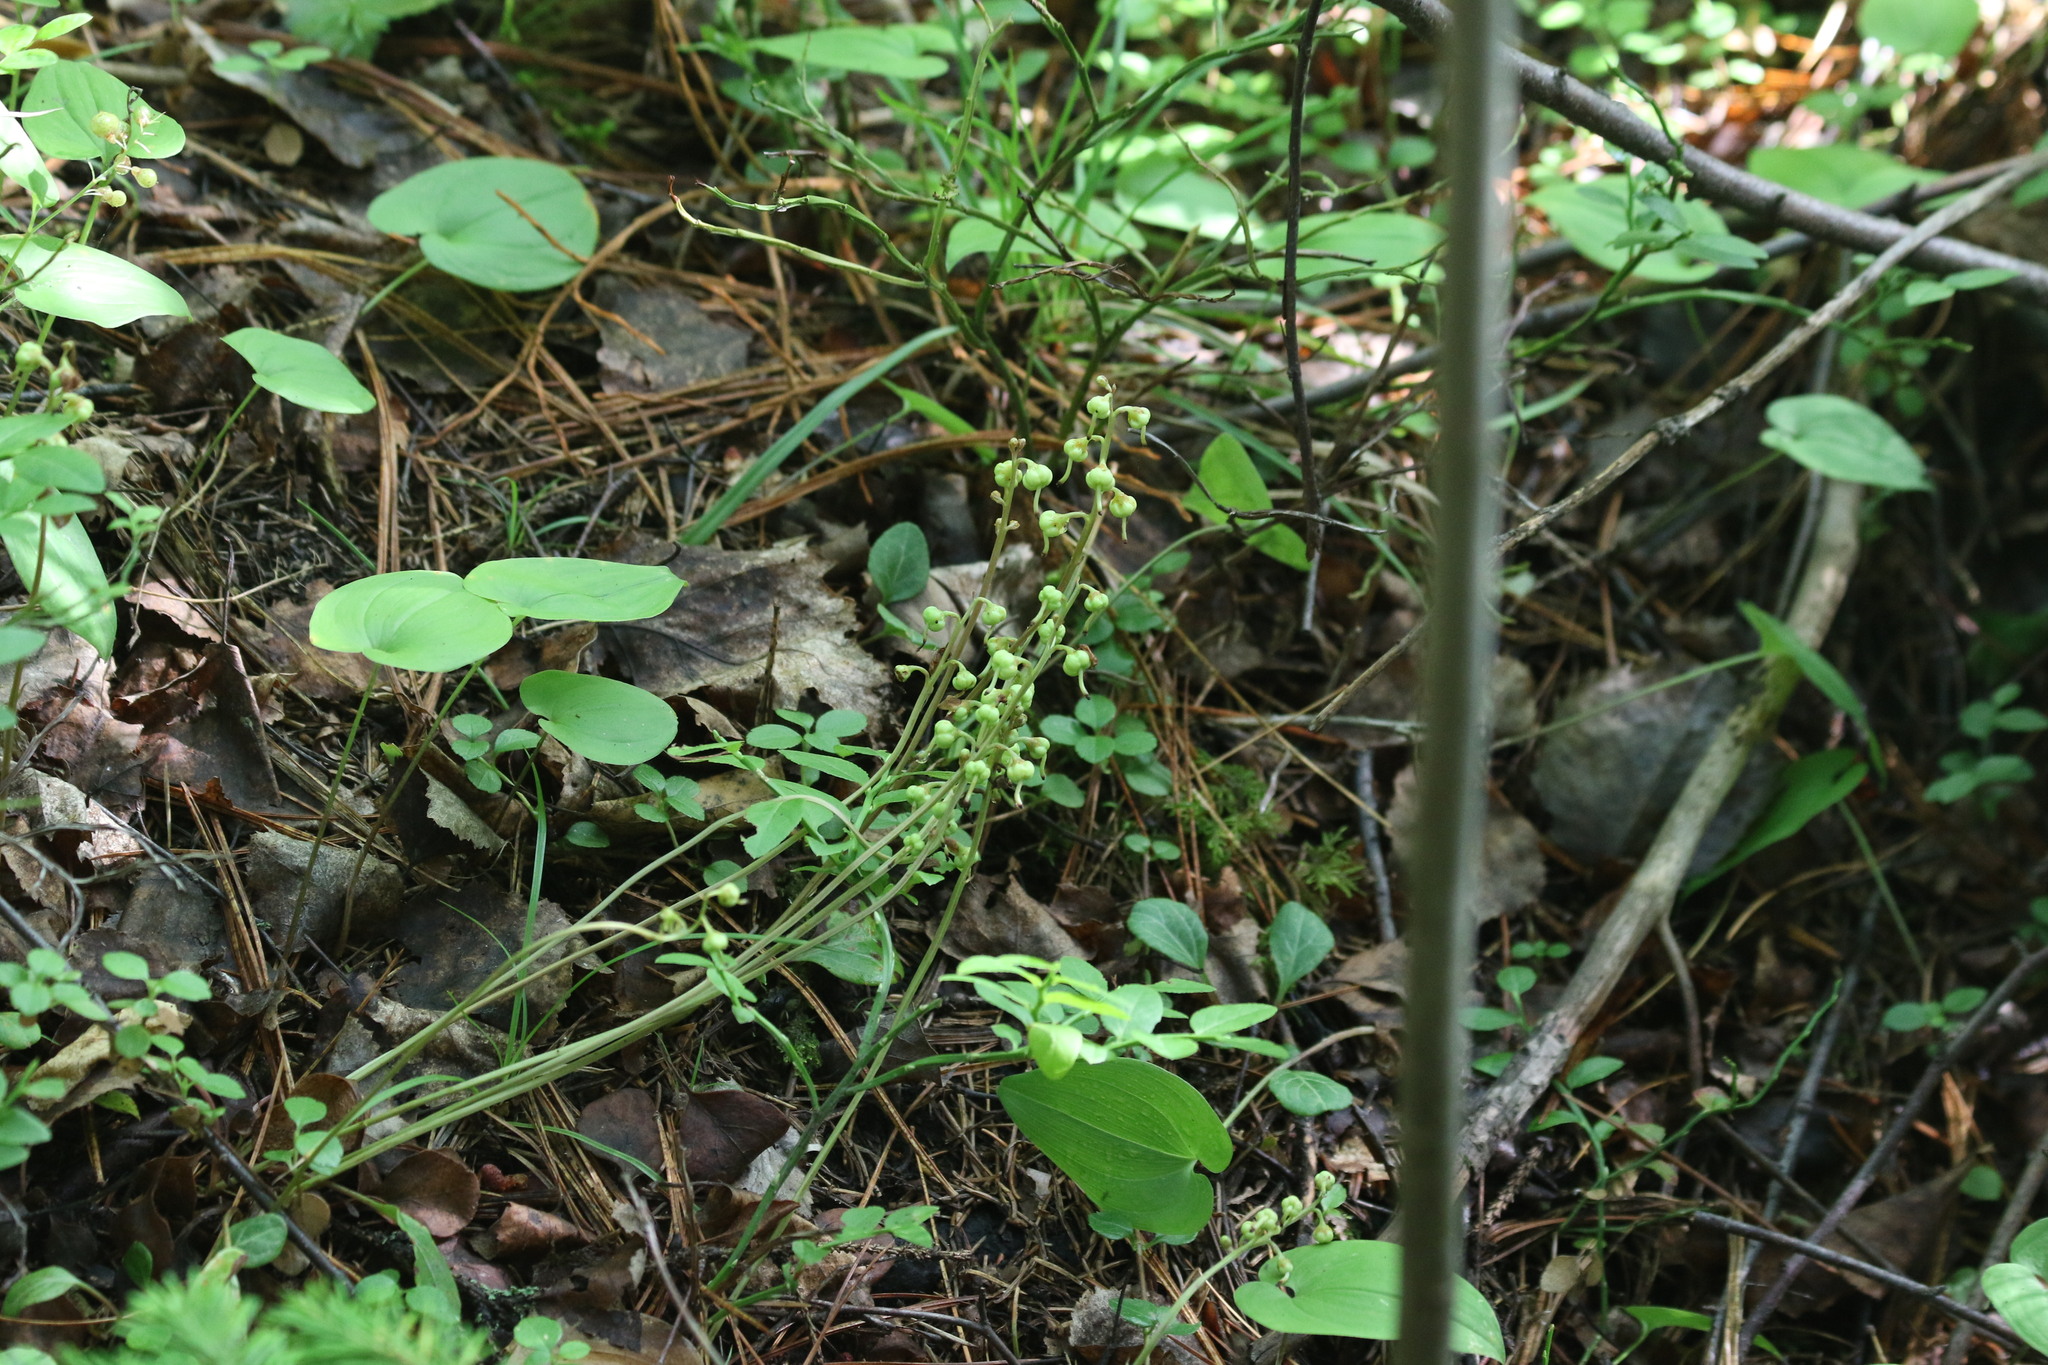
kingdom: Plantae
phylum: Tracheophyta
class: Magnoliopsida
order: Ericales
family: Ericaceae
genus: Pyrola
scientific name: Pyrola chlorantha
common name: Green wintergreen
